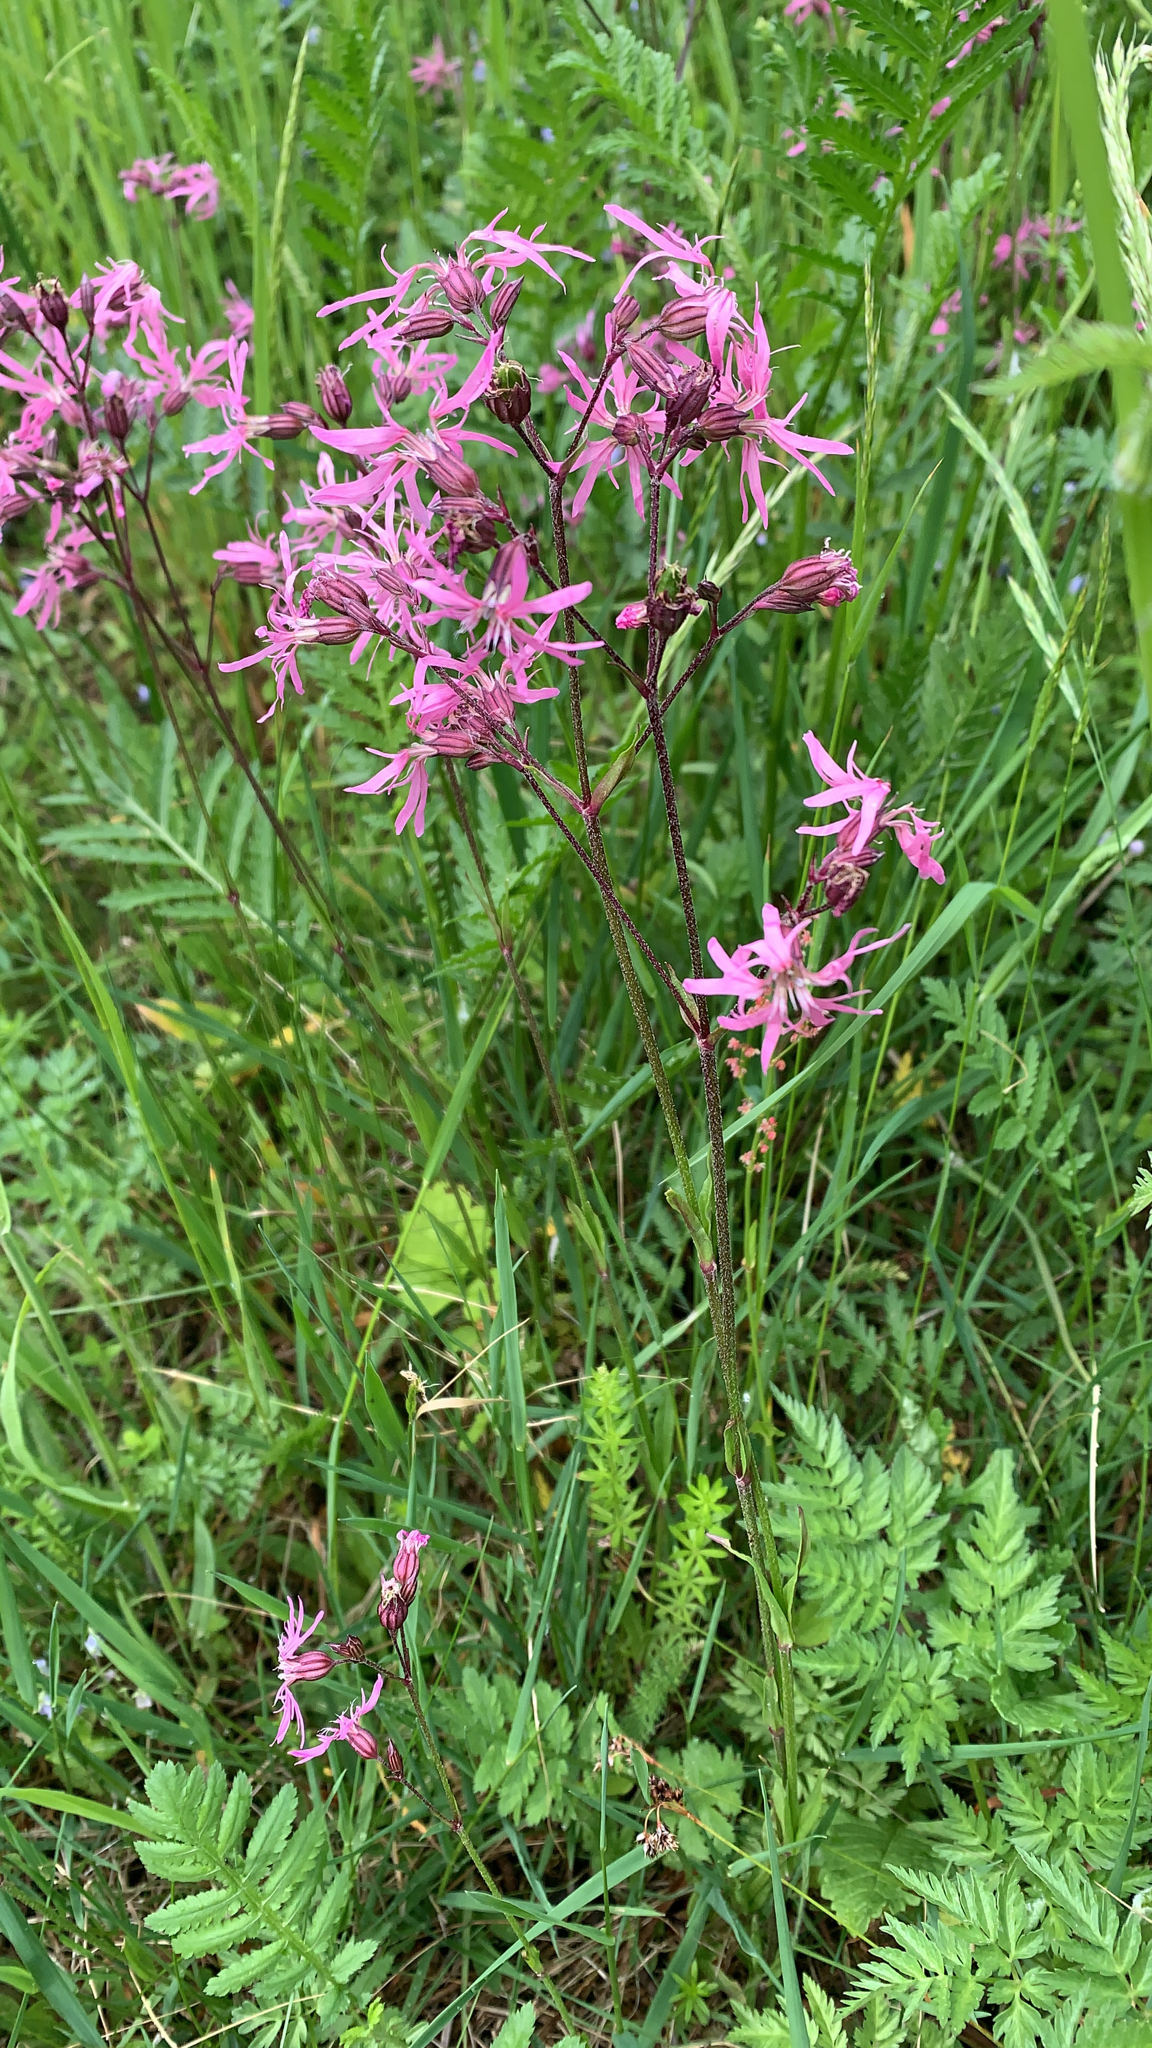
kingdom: Plantae
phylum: Tracheophyta
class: Magnoliopsida
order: Caryophyllales
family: Caryophyllaceae
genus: Silene
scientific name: Silene flos-cuculi
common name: Ragged-robin
